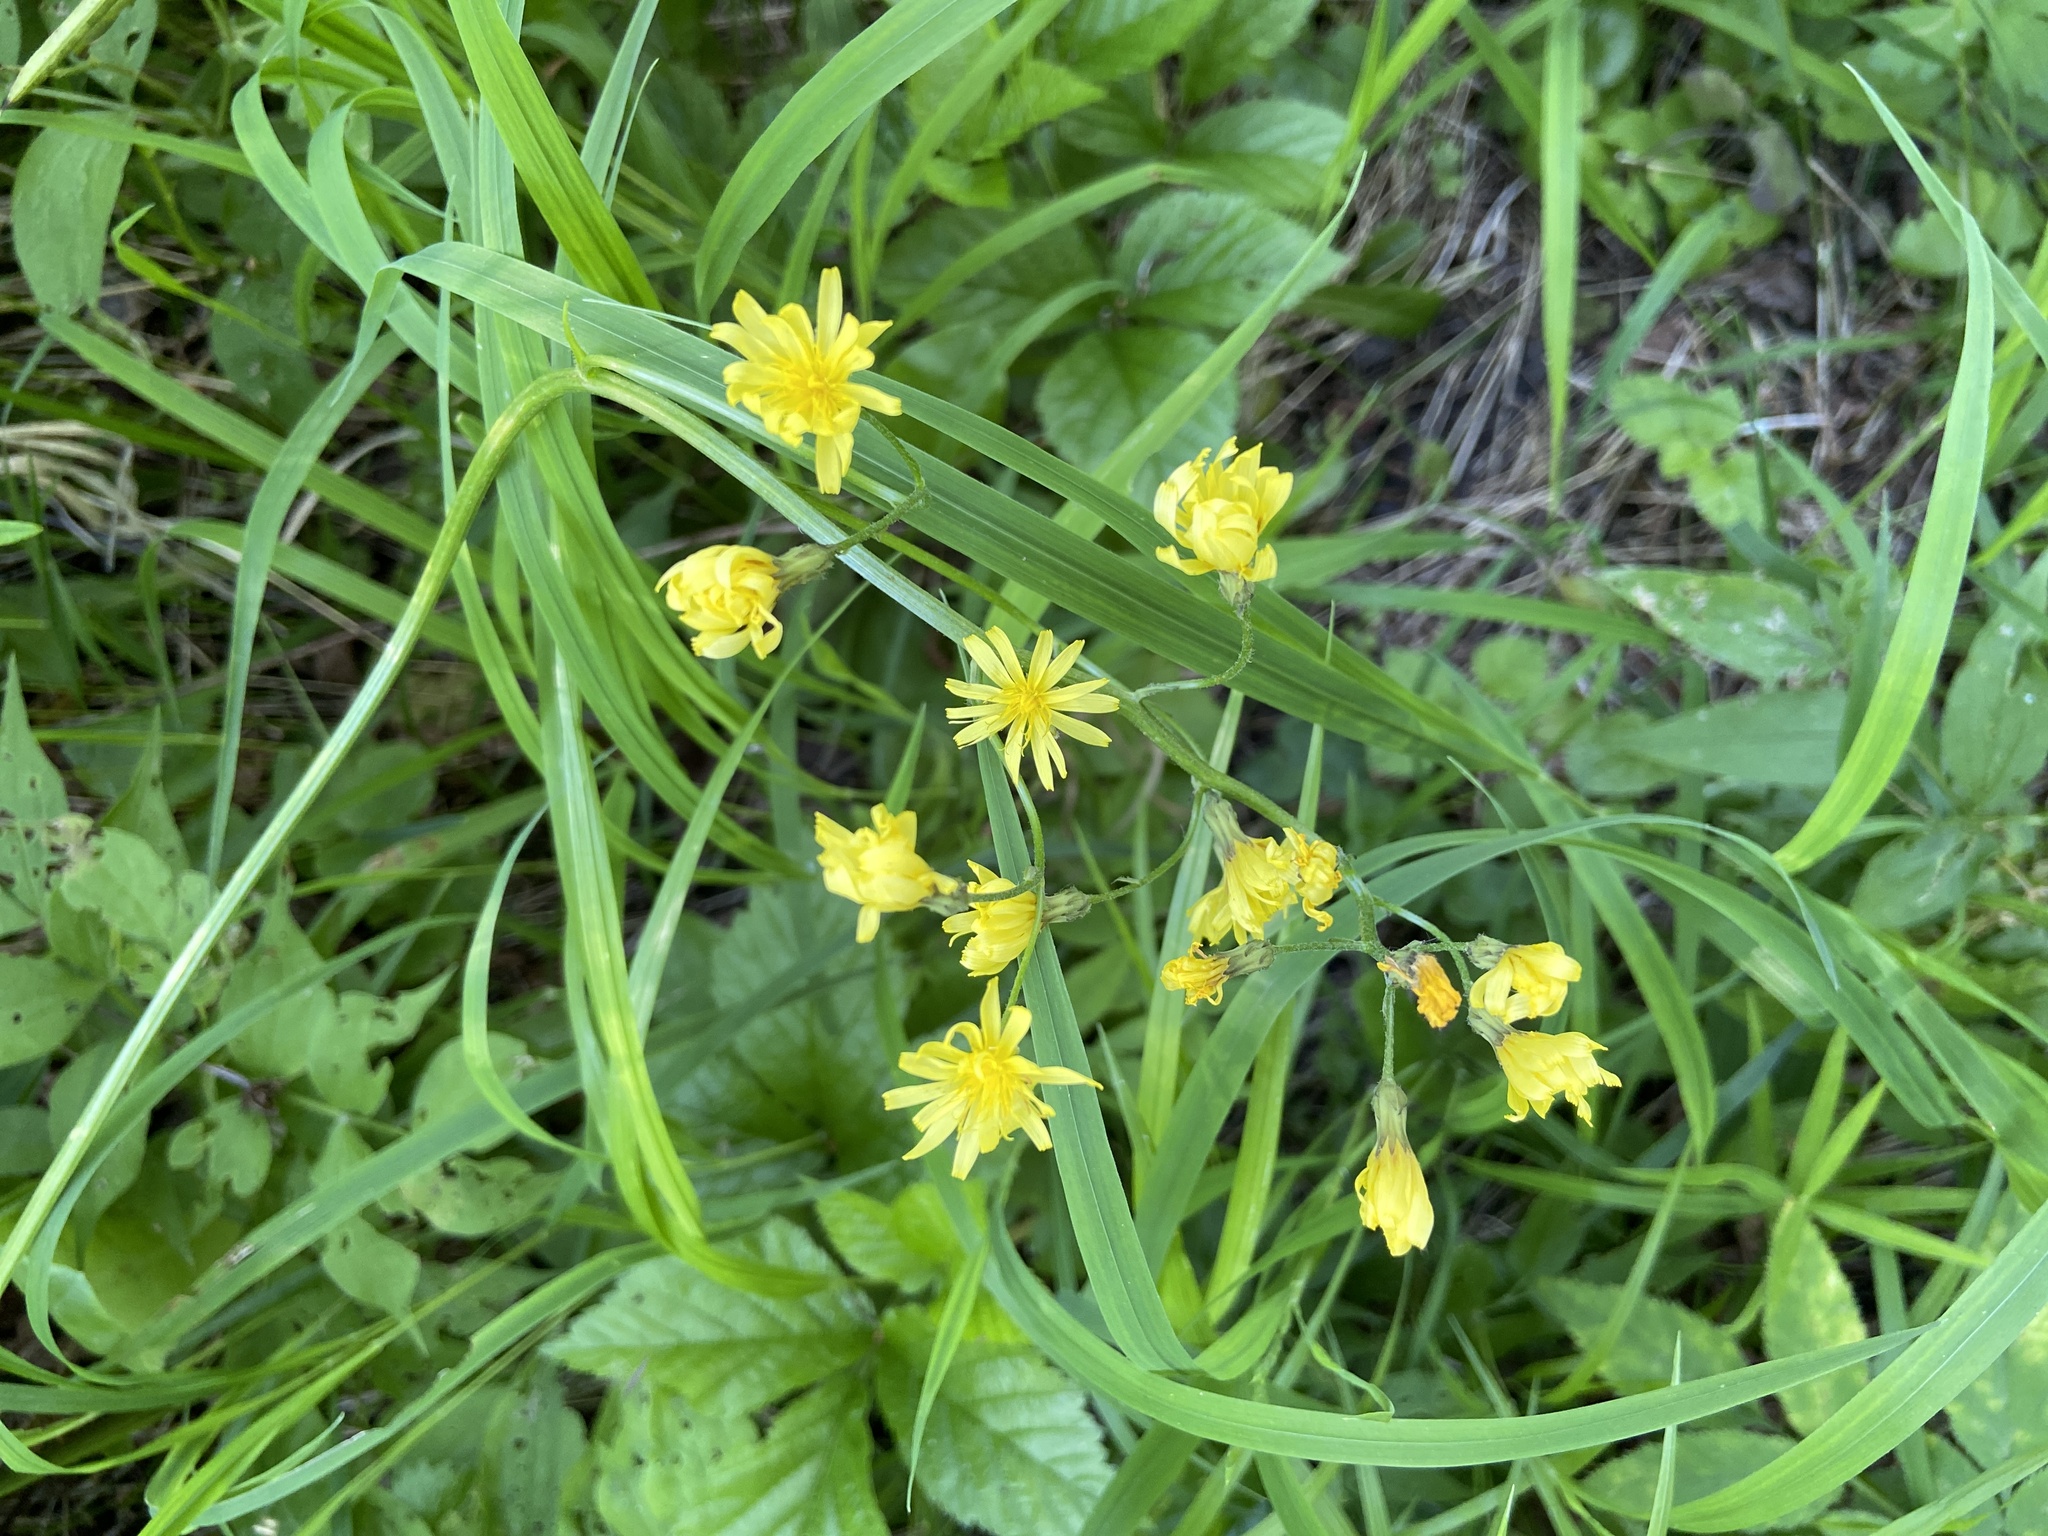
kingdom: Plantae
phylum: Tracheophyta
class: Magnoliopsida
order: Asterales
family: Asteraceae
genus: Crepis
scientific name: Crepis praemorsa
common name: Leafless hawk's-beard
